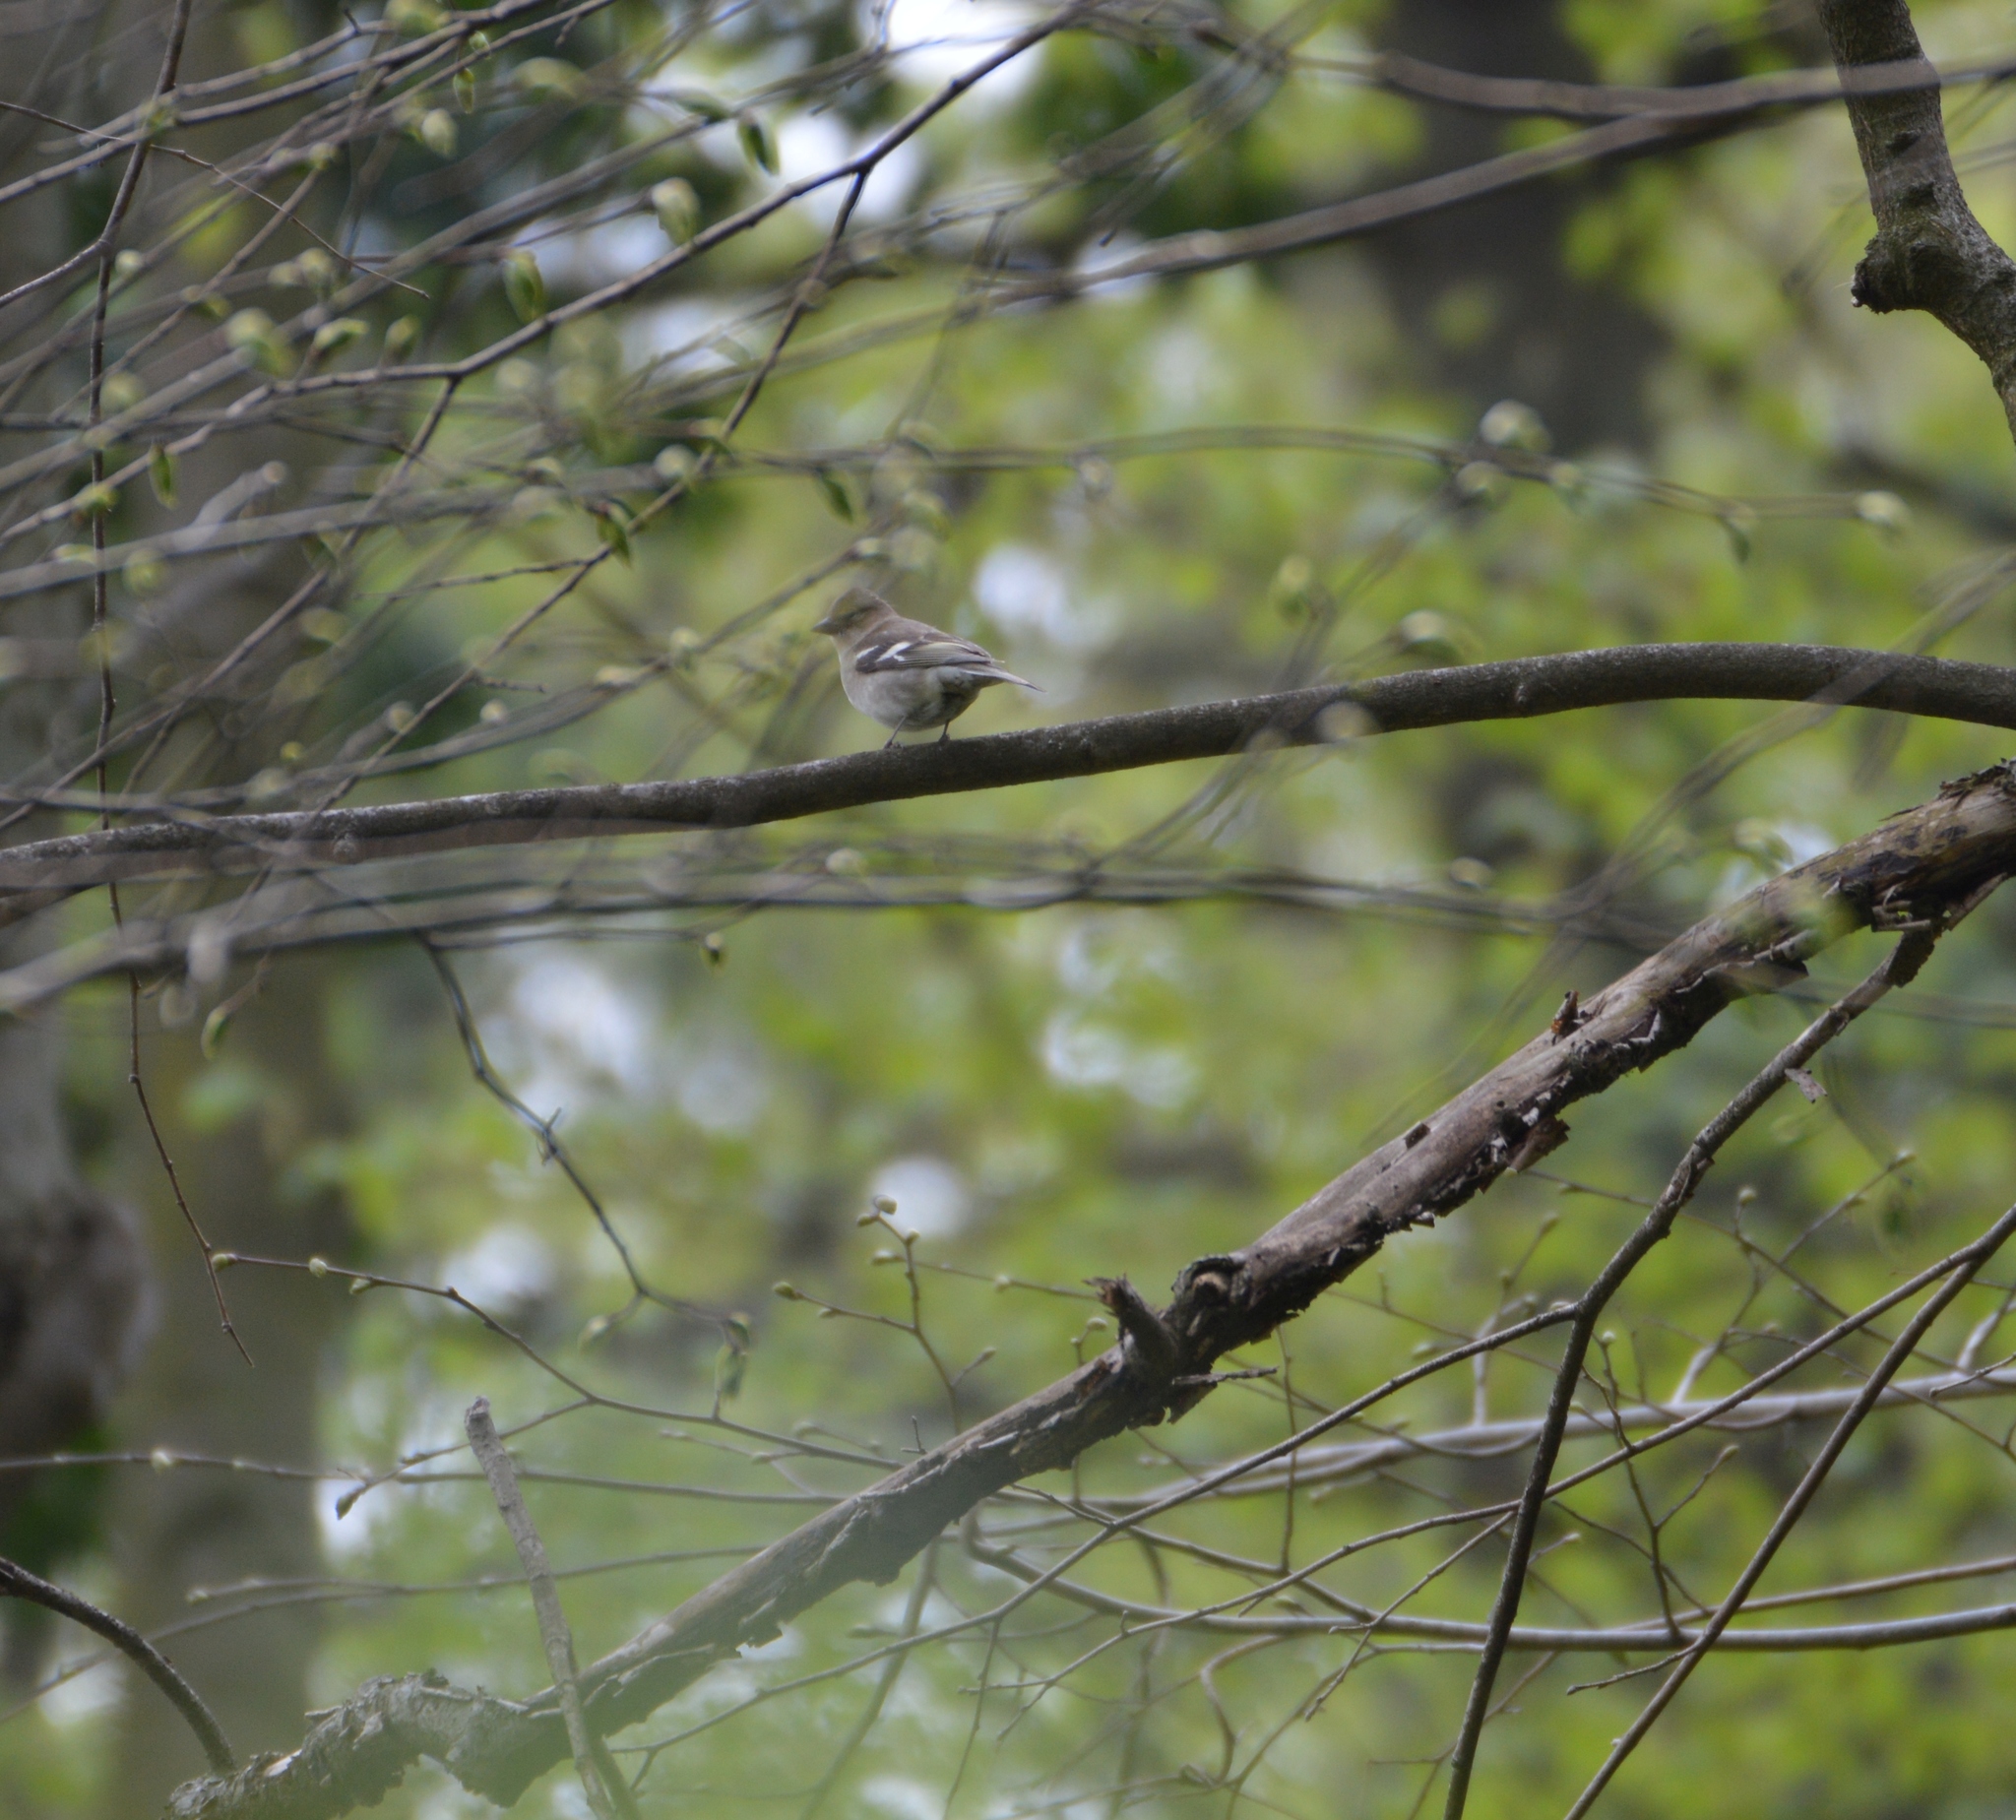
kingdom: Animalia
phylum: Chordata
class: Aves
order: Passeriformes
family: Fringillidae
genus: Fringilla
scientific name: Fringilla coelebs
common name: Common chaffinch
